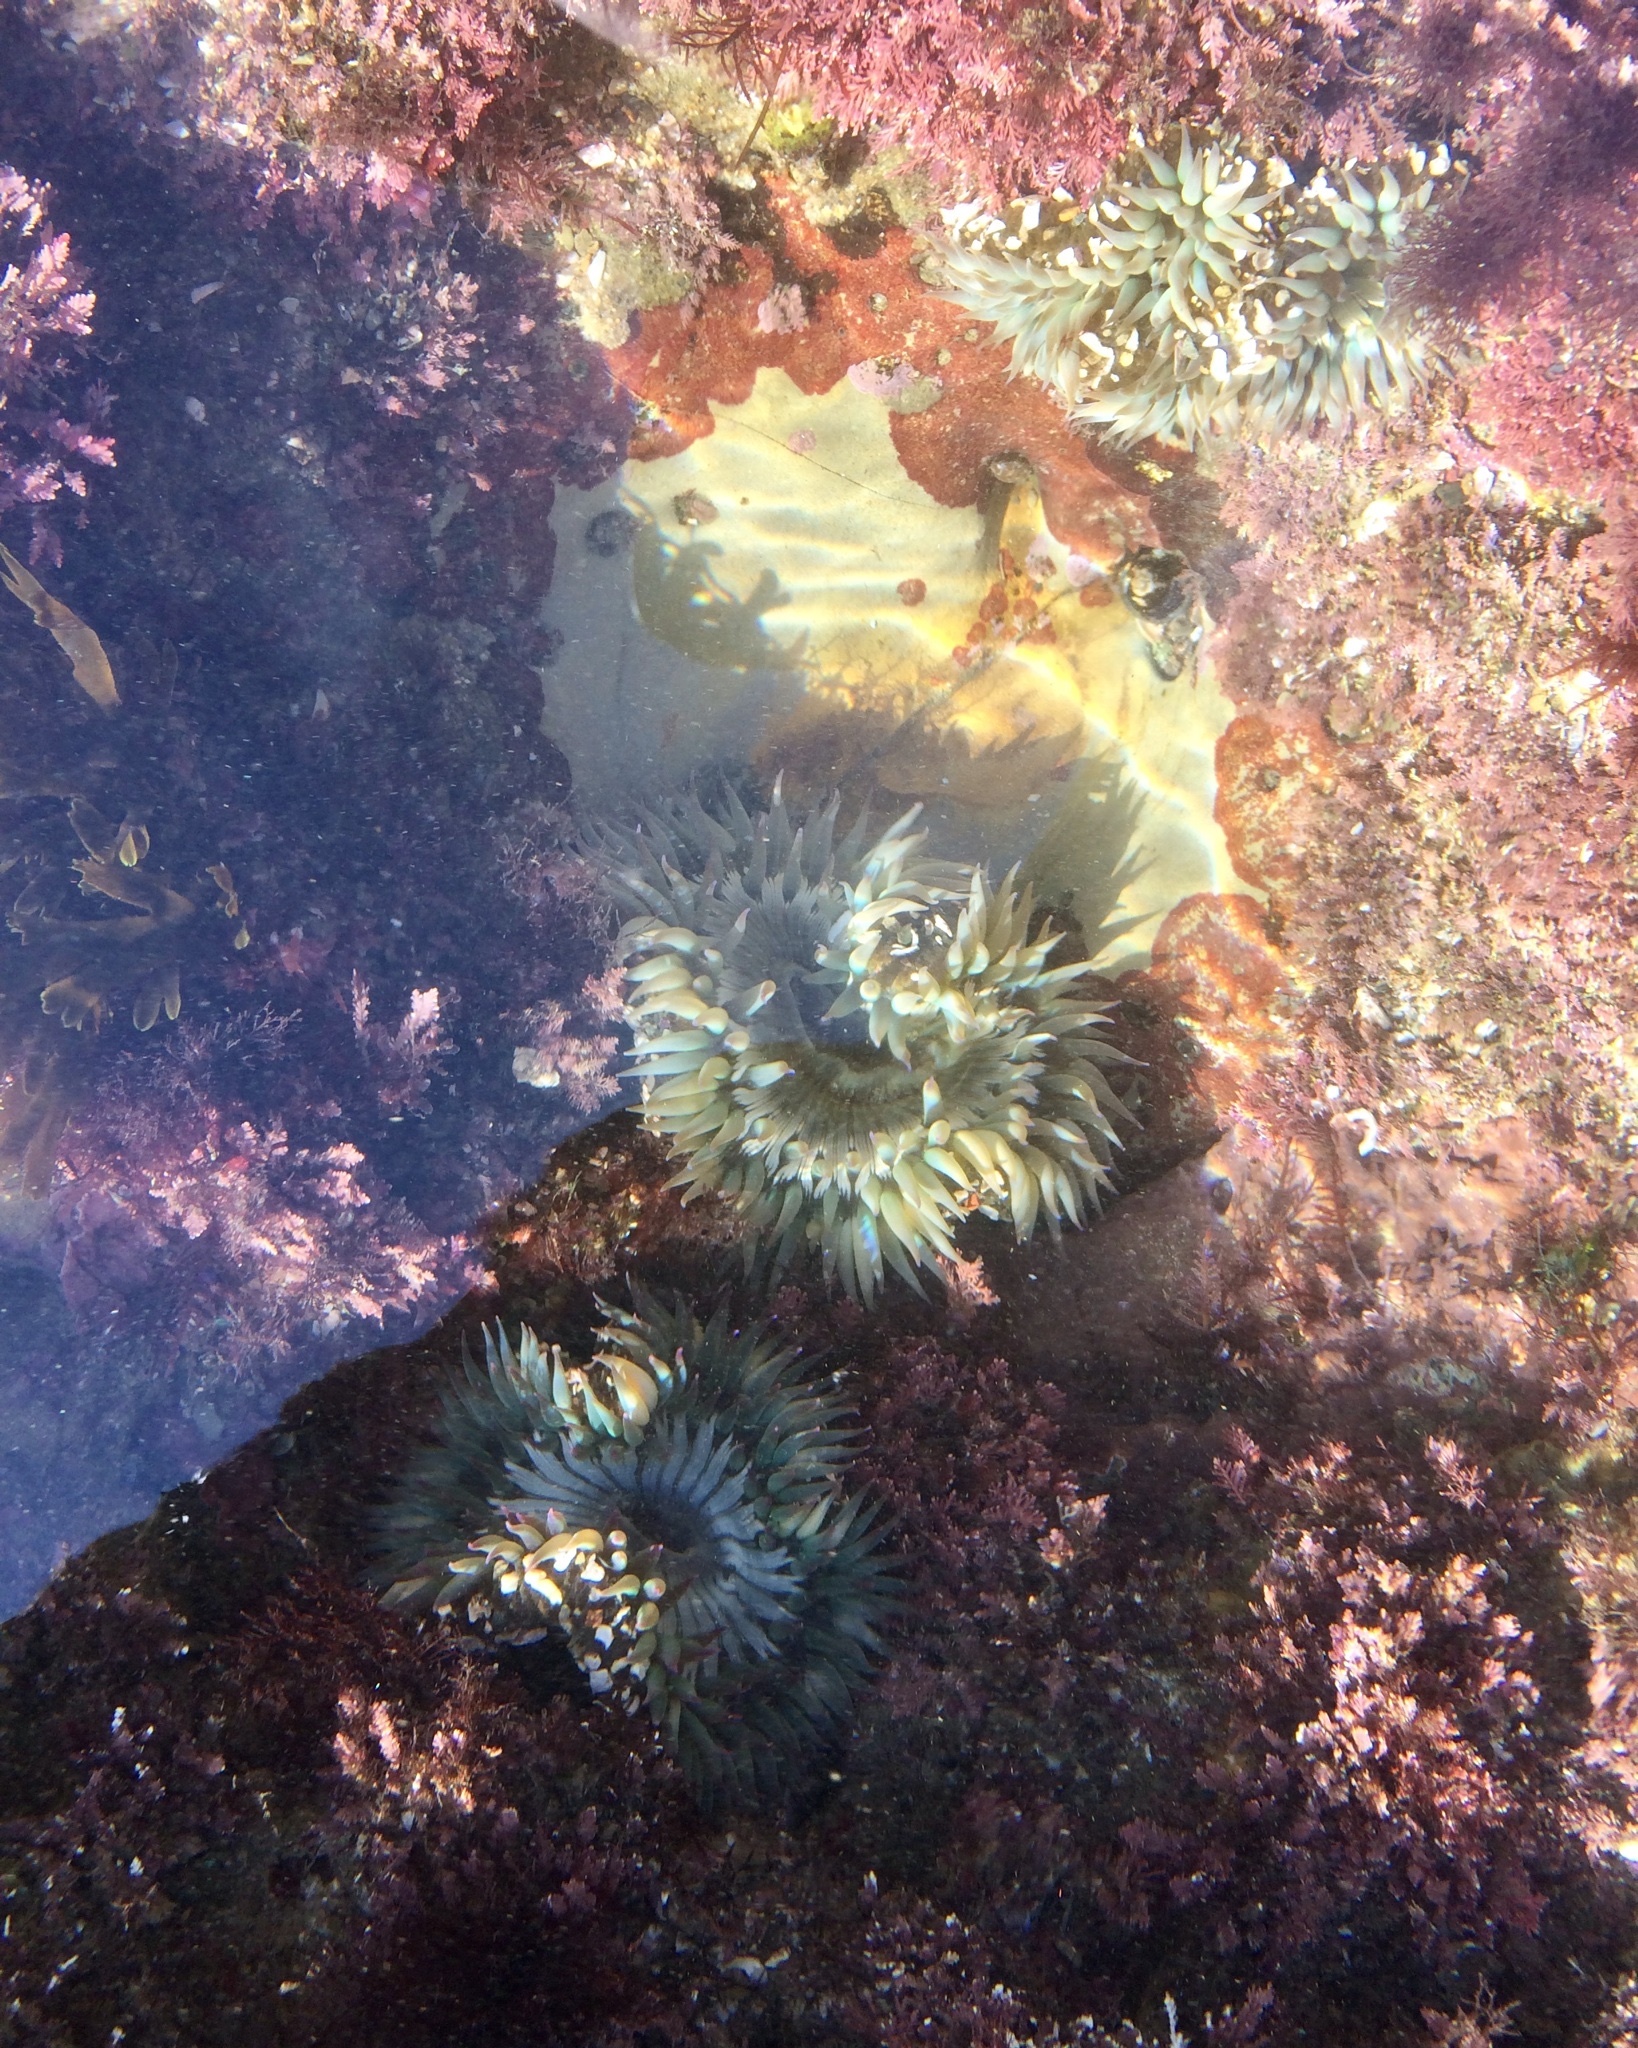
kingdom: Animalia
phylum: Cnidaria
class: Anthozoa
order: Actiniaria
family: Actiniidae
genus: Anthopleura
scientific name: Anthopleura sola
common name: Sun anemone
